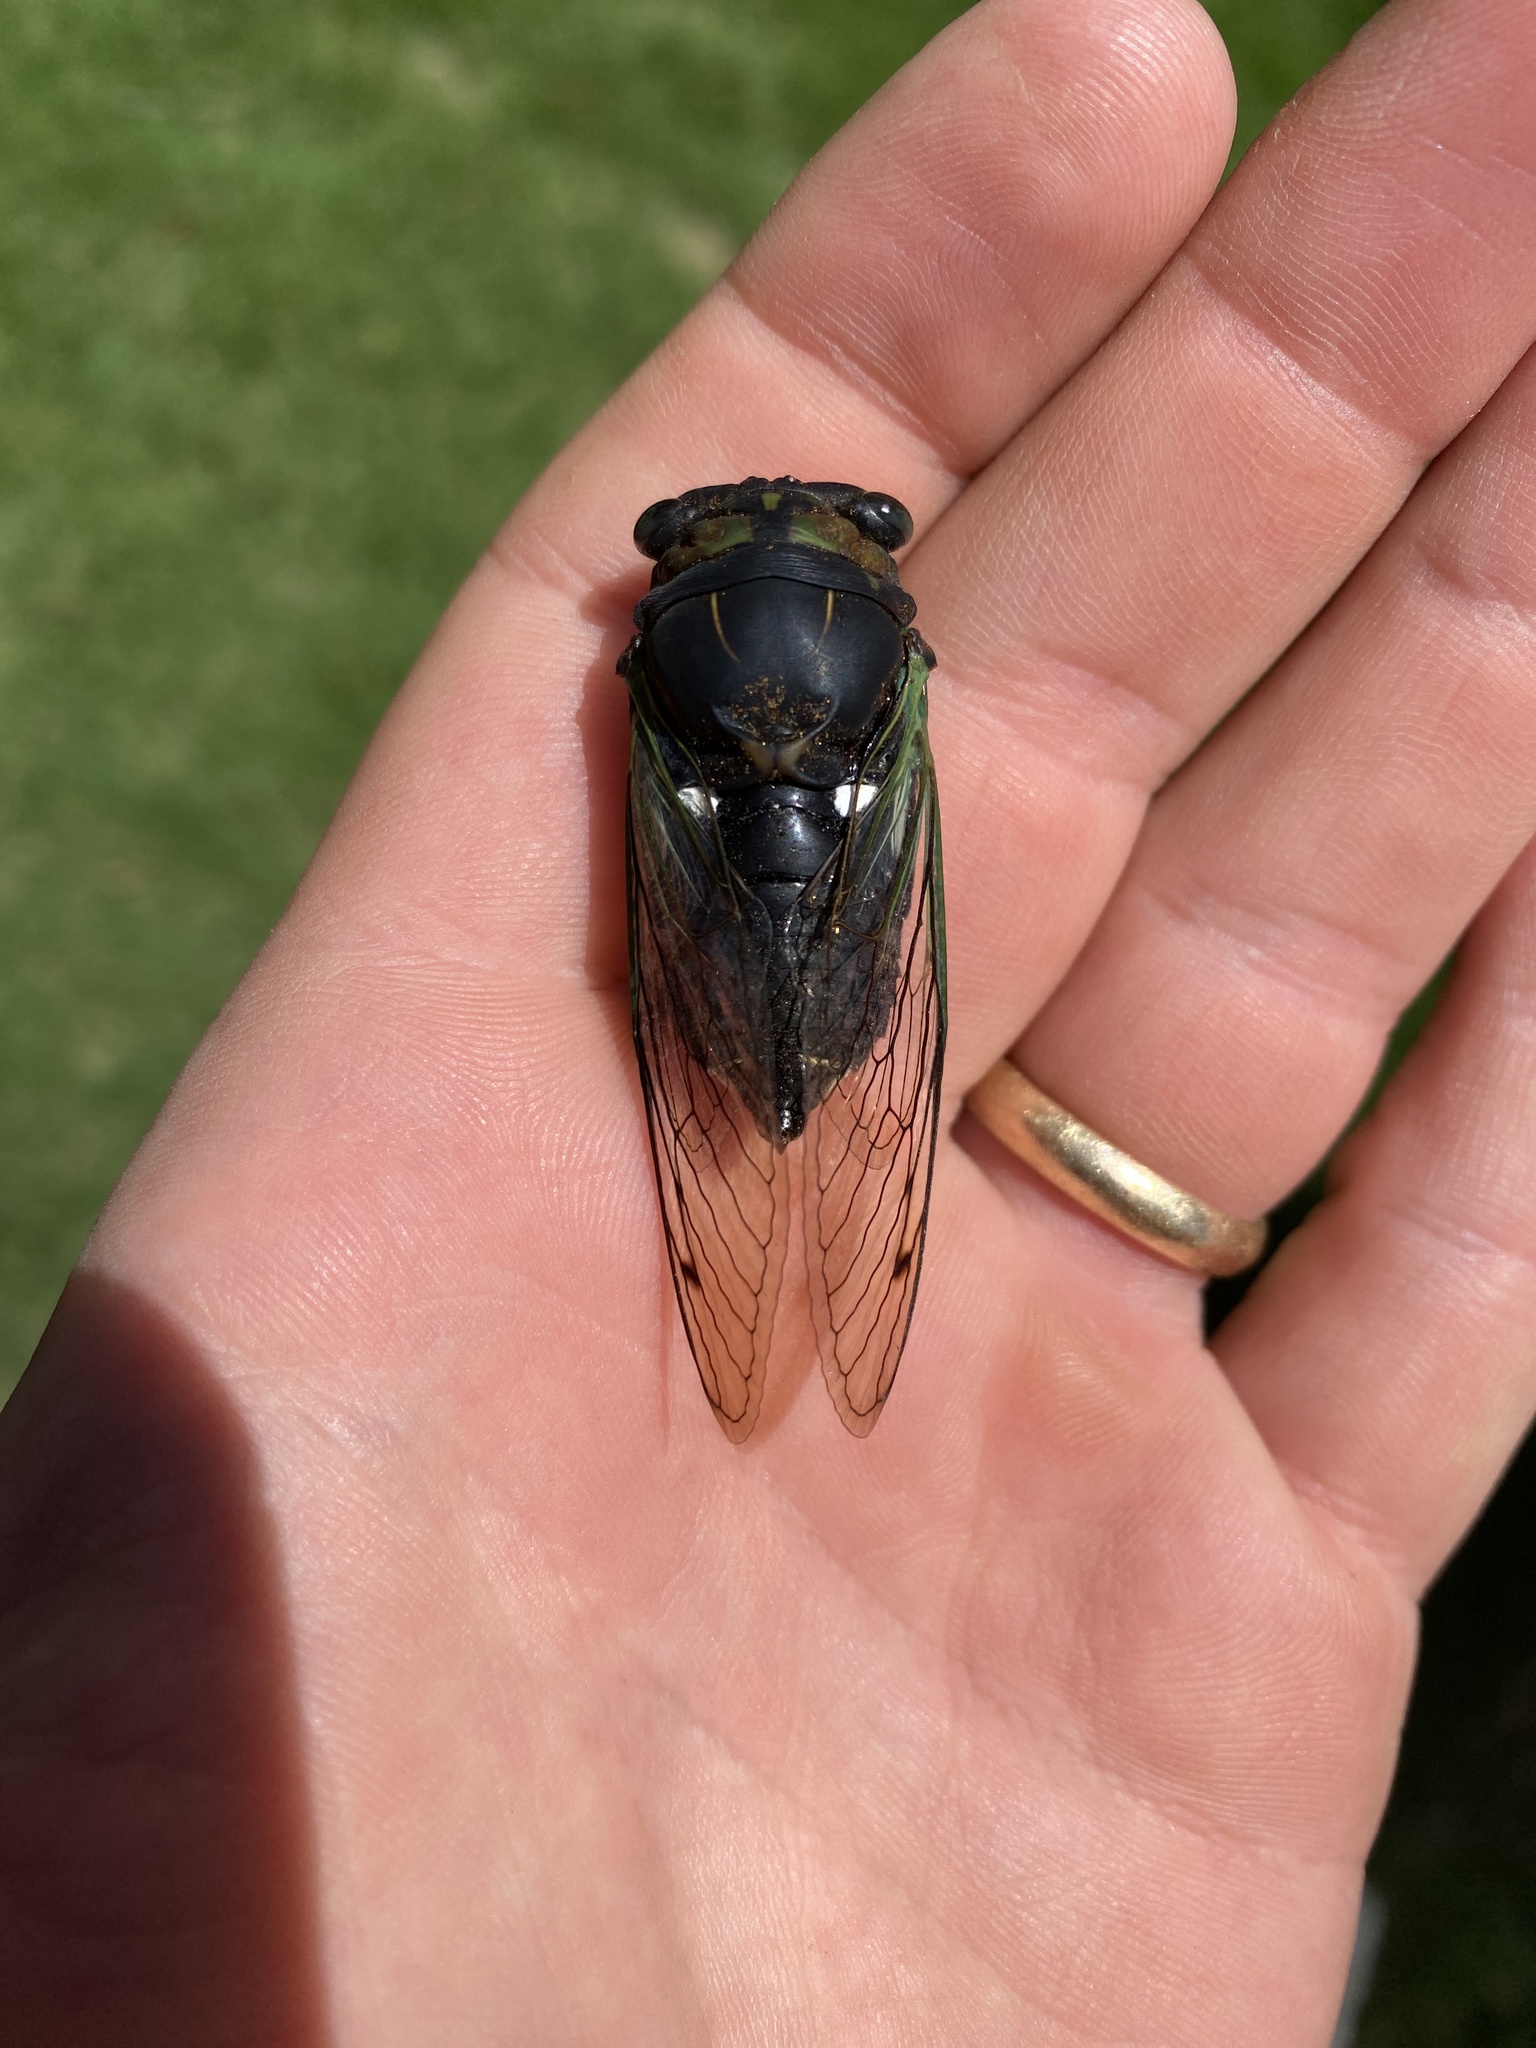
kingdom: Animalia
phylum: Arthropoda
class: Insecta
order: Hemiptera
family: Cicadidae
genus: Neotibicen
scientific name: Neotibicen tibicen
